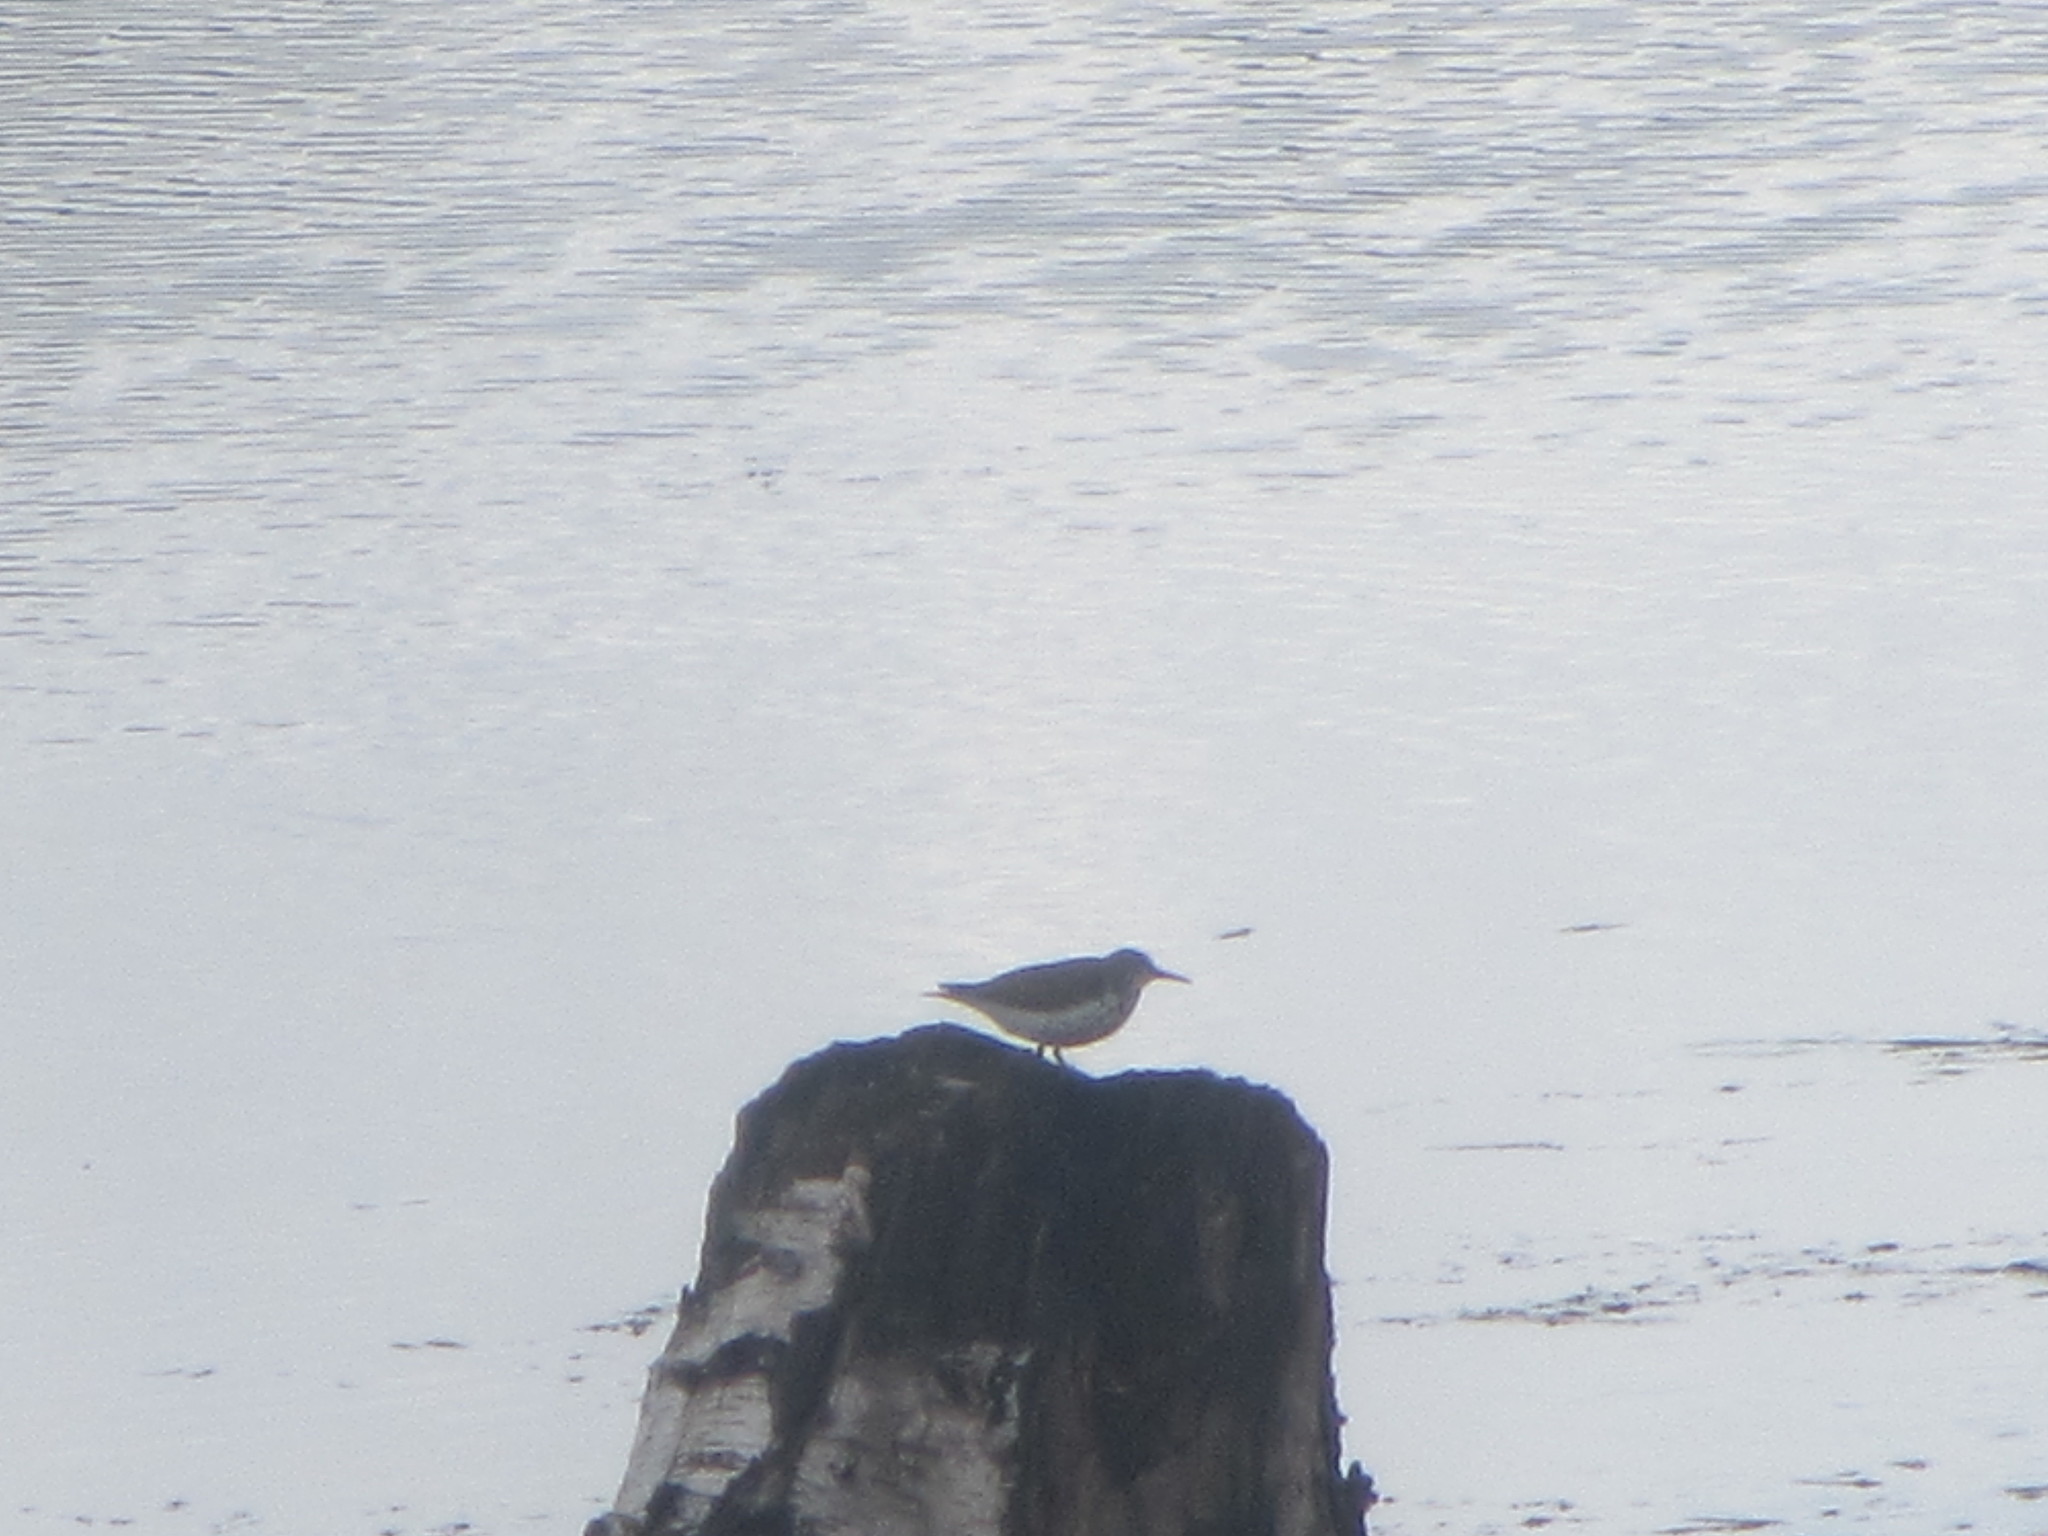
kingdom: Animalia
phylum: Chordata
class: Aves
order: Charadriiformes
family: Scolopacidae
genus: Actitis
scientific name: Actitis macularius
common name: Spotted sandpiper
